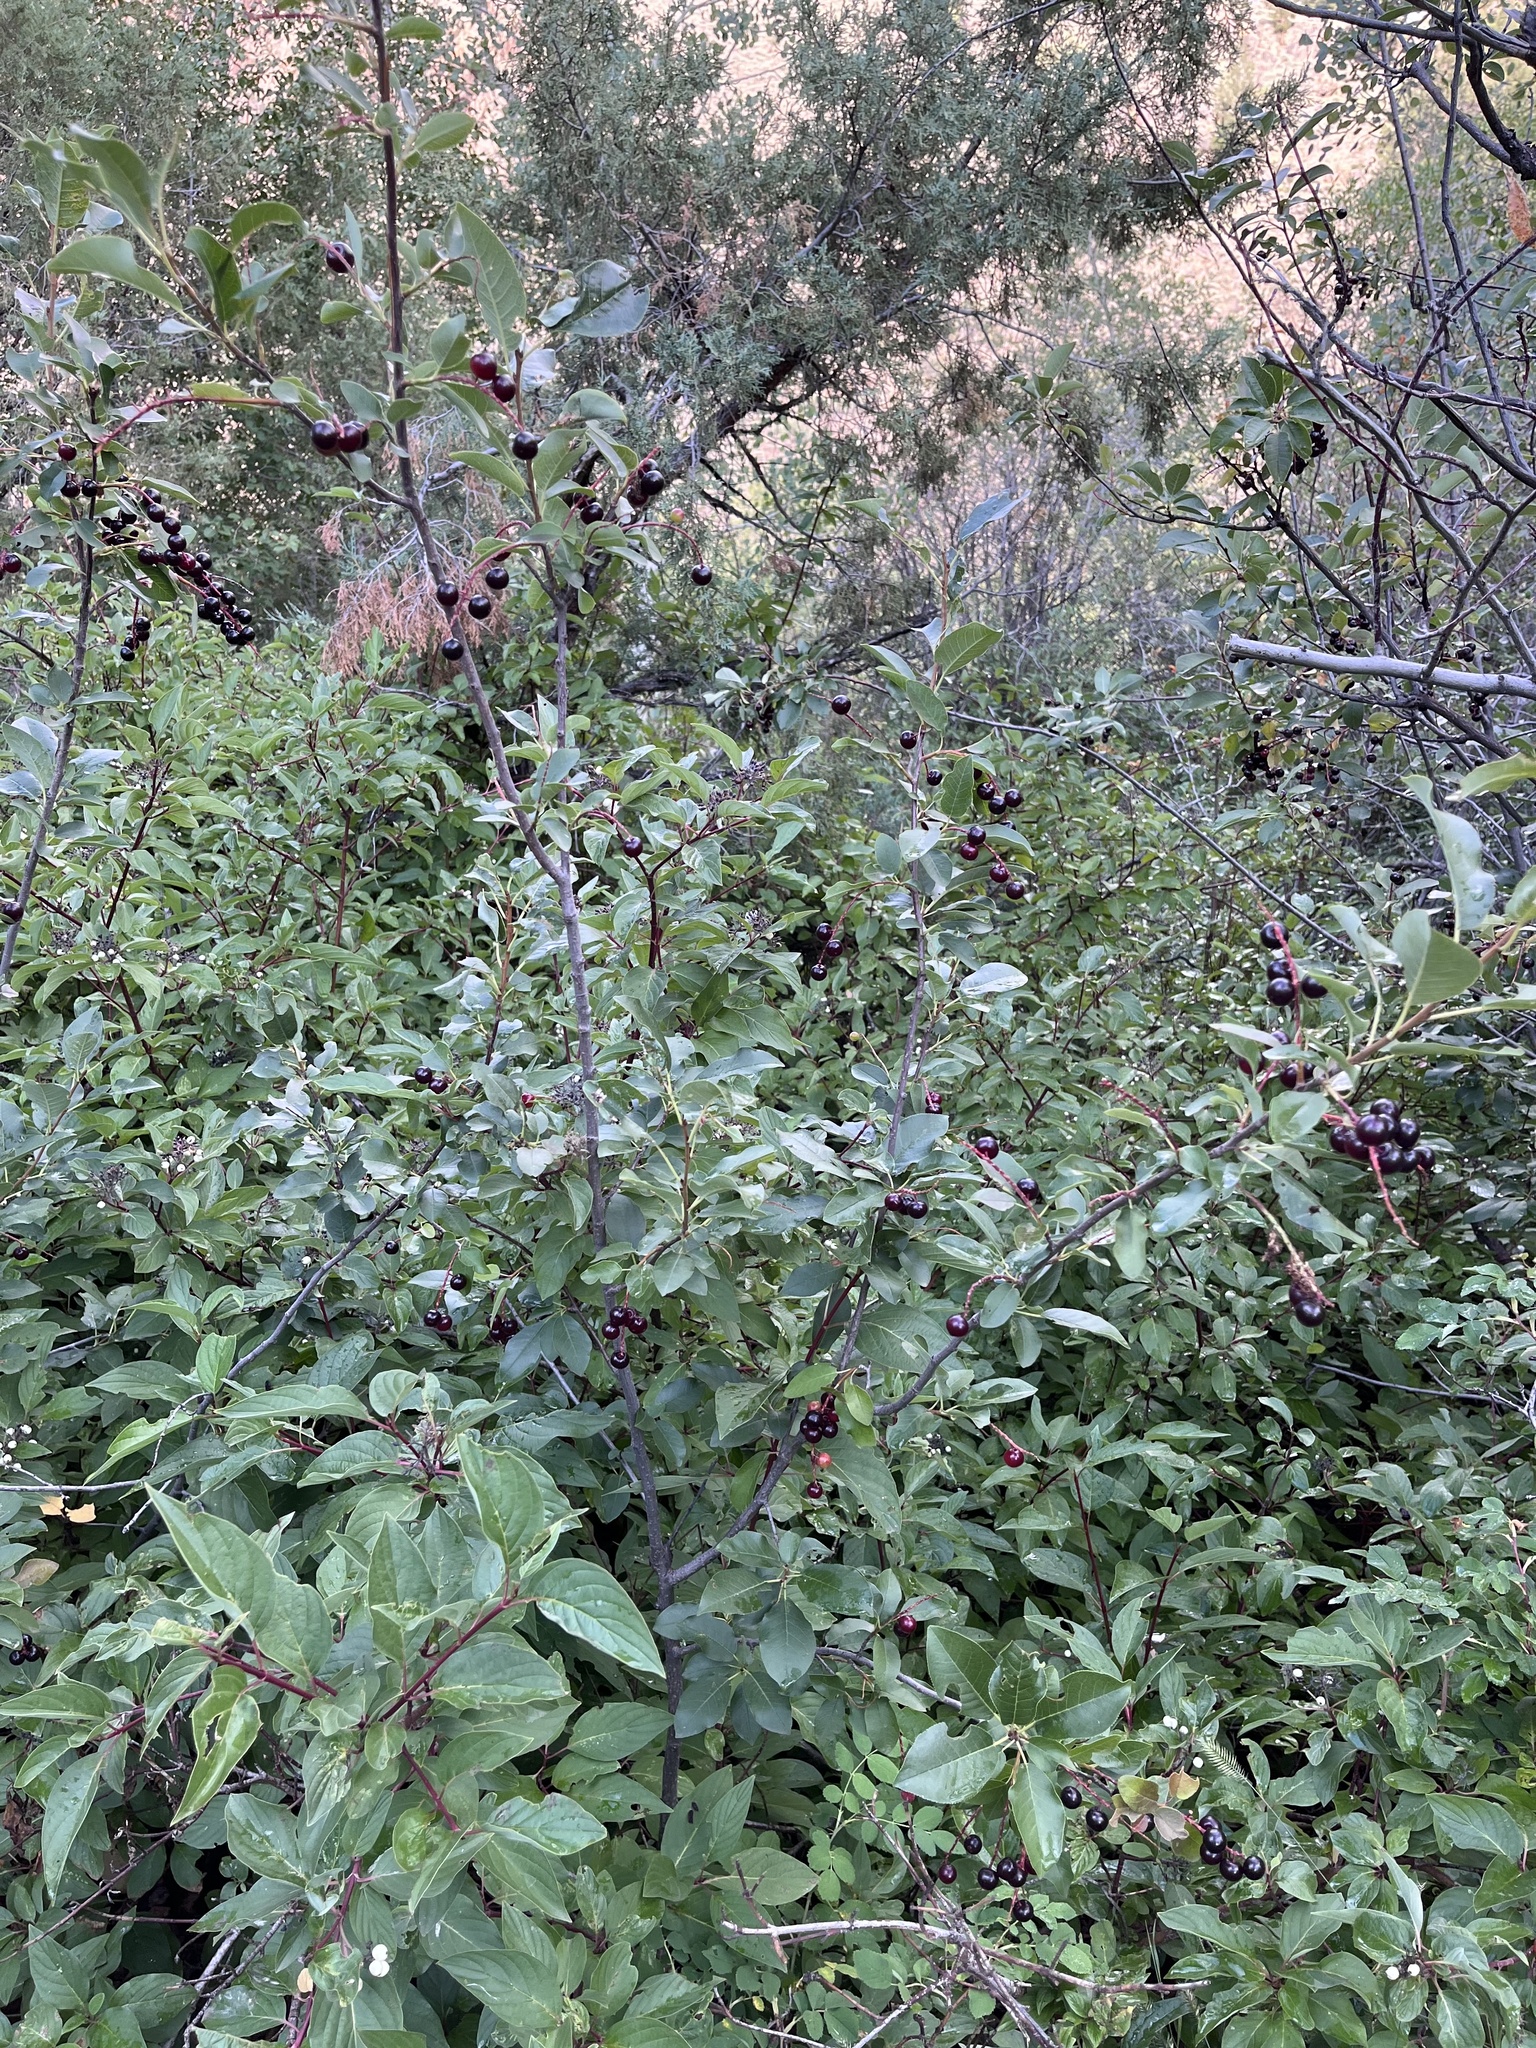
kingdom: Plantae
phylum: Tracheophyta
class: Magnoliopsida
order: Rosales
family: Rosaceae
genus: Prunus
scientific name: Prunus virginiana
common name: Chokecherry
